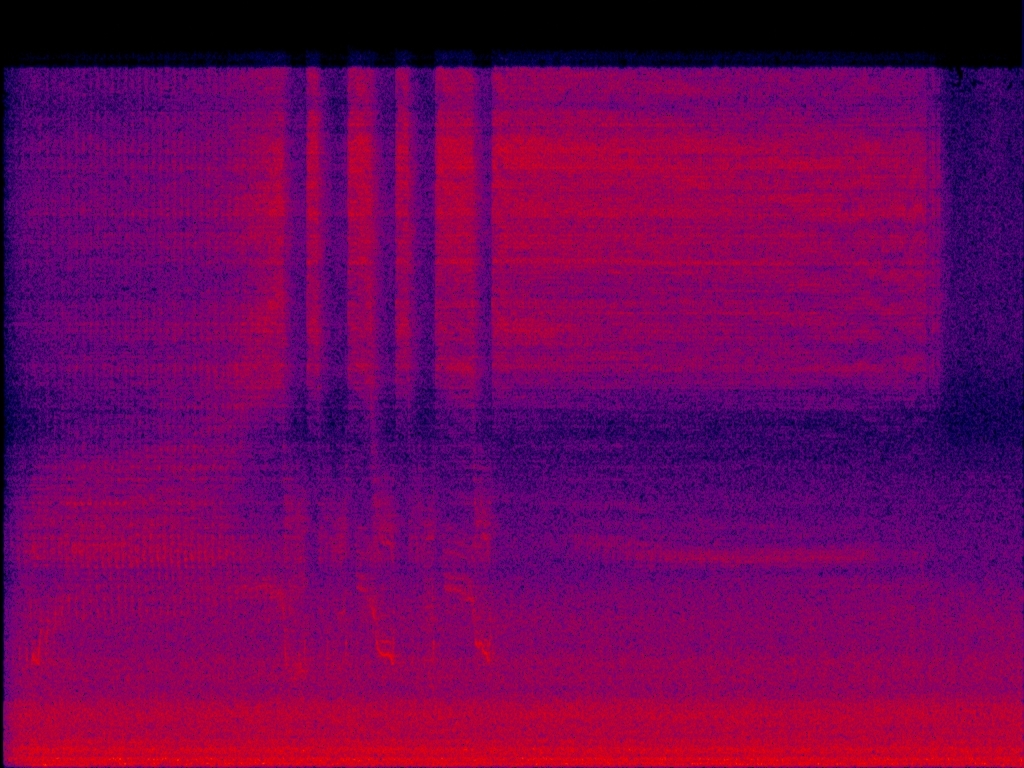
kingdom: Animalia
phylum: Arthropoda
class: Insecta
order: Hemiptera
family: Cicadidae
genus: Meimuna
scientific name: Meimuna opalifera
